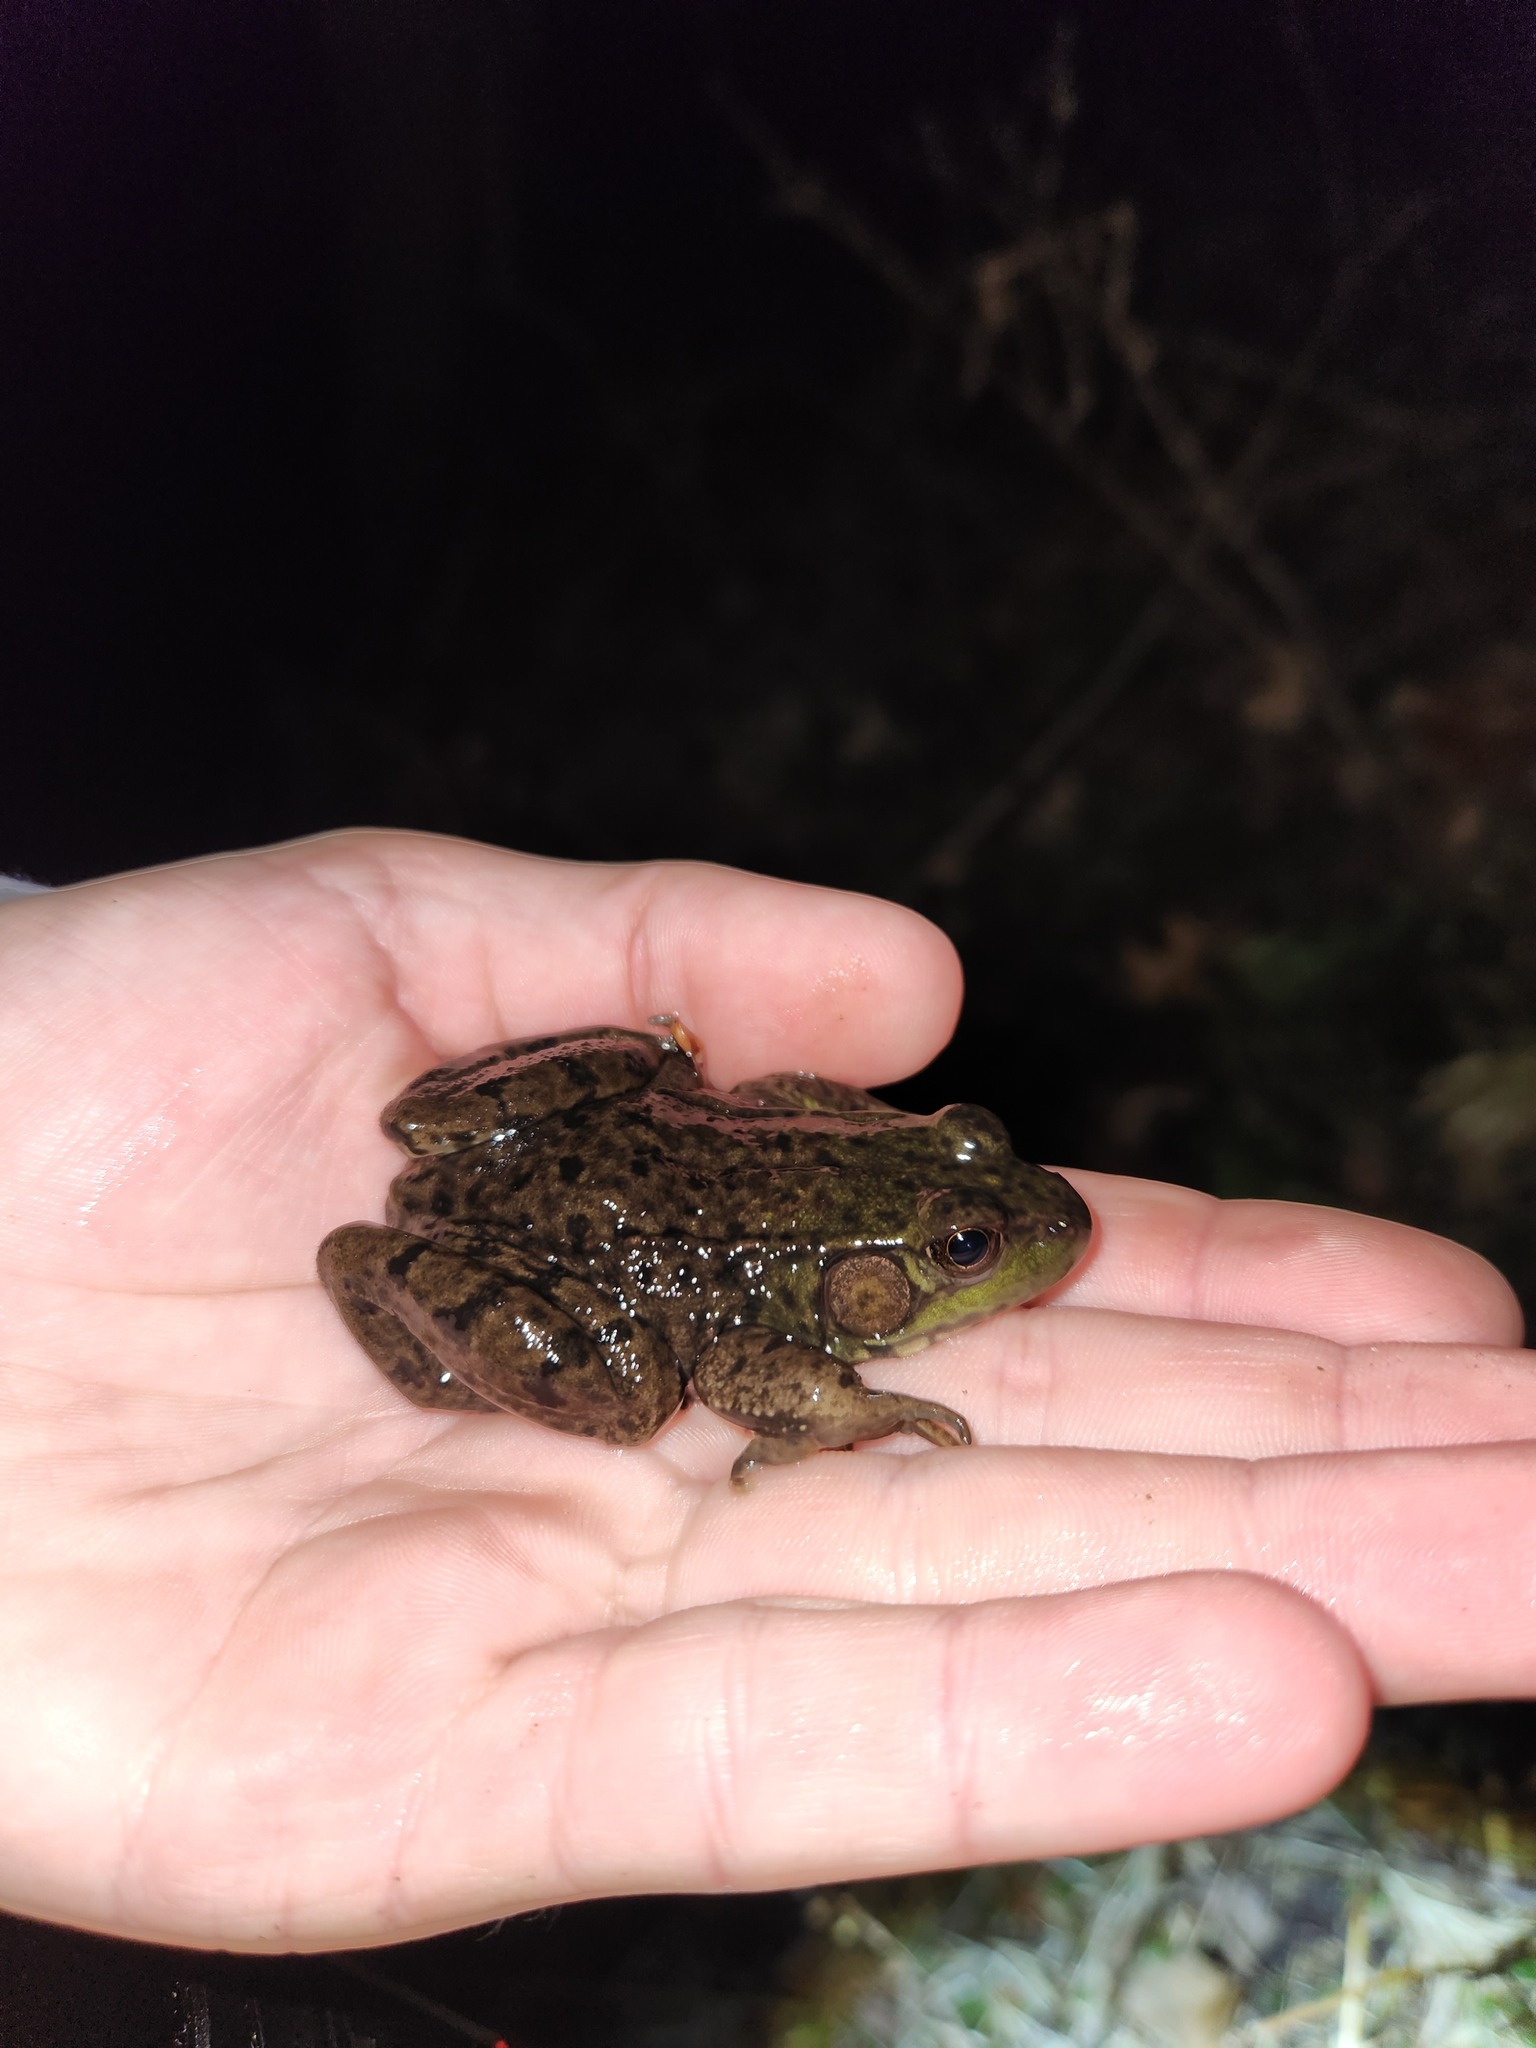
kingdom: Animalia
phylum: Chordata
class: Amphibia
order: Anura
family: Ranidae
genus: Lithobates
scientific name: Lithobates clamitans
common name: Green frog
